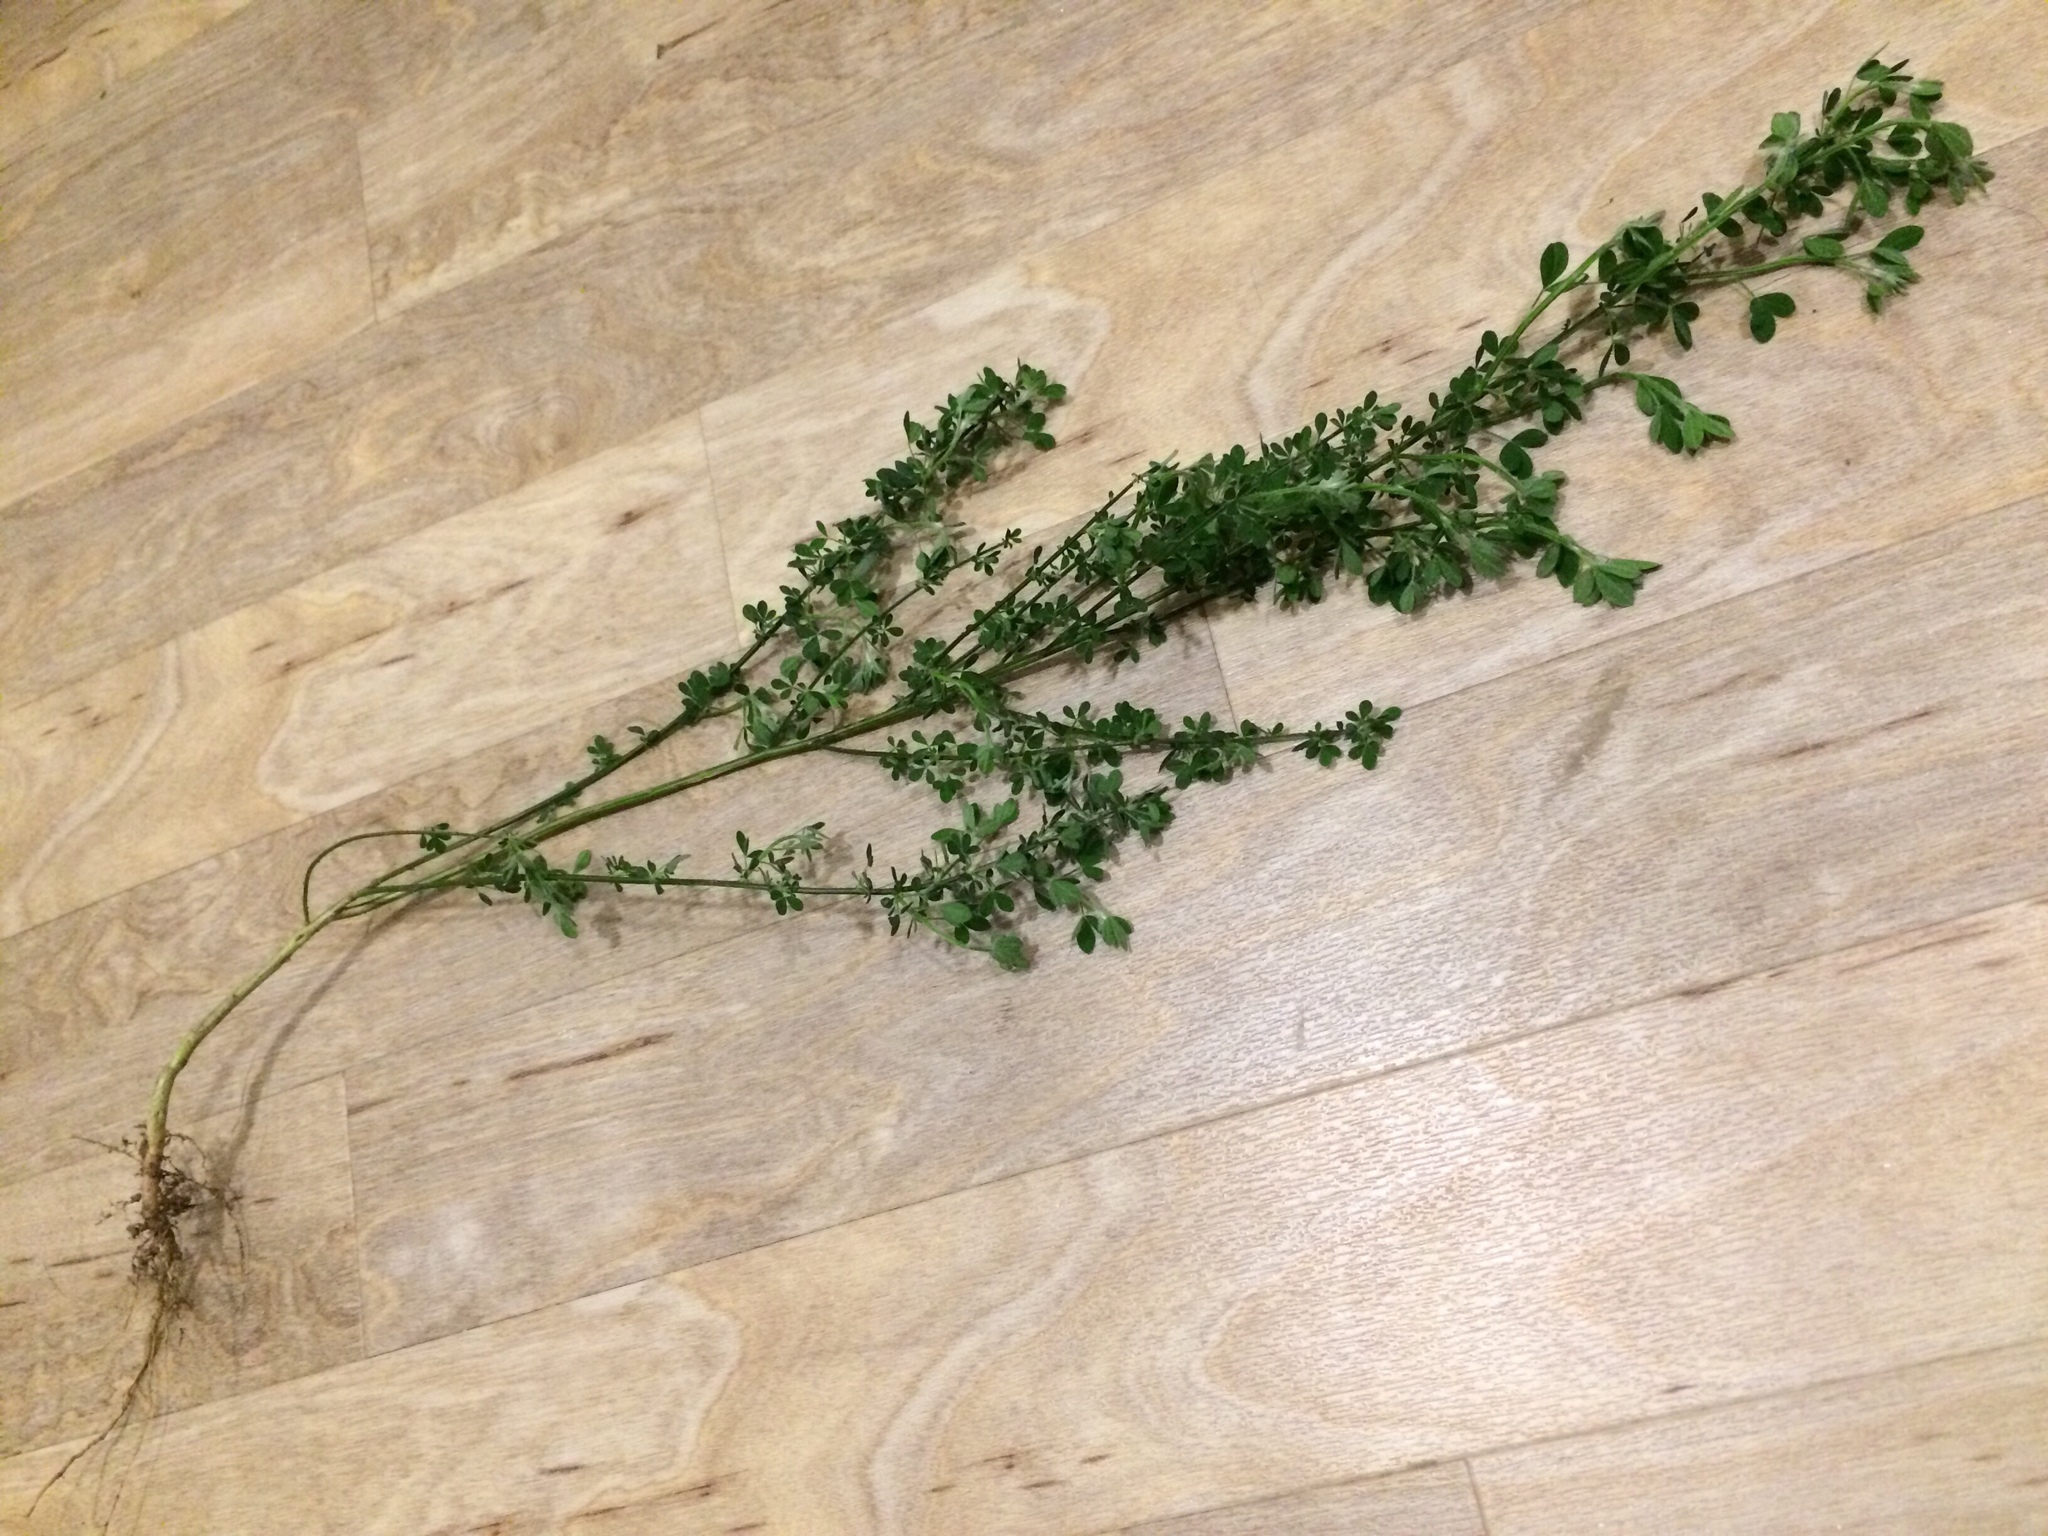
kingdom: Plantae
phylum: Tracheophyta
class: Magnoliopsida
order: Fabales
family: Fabaceae
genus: Cytisus
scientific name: Cytisus scoparius
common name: Scotch broom
